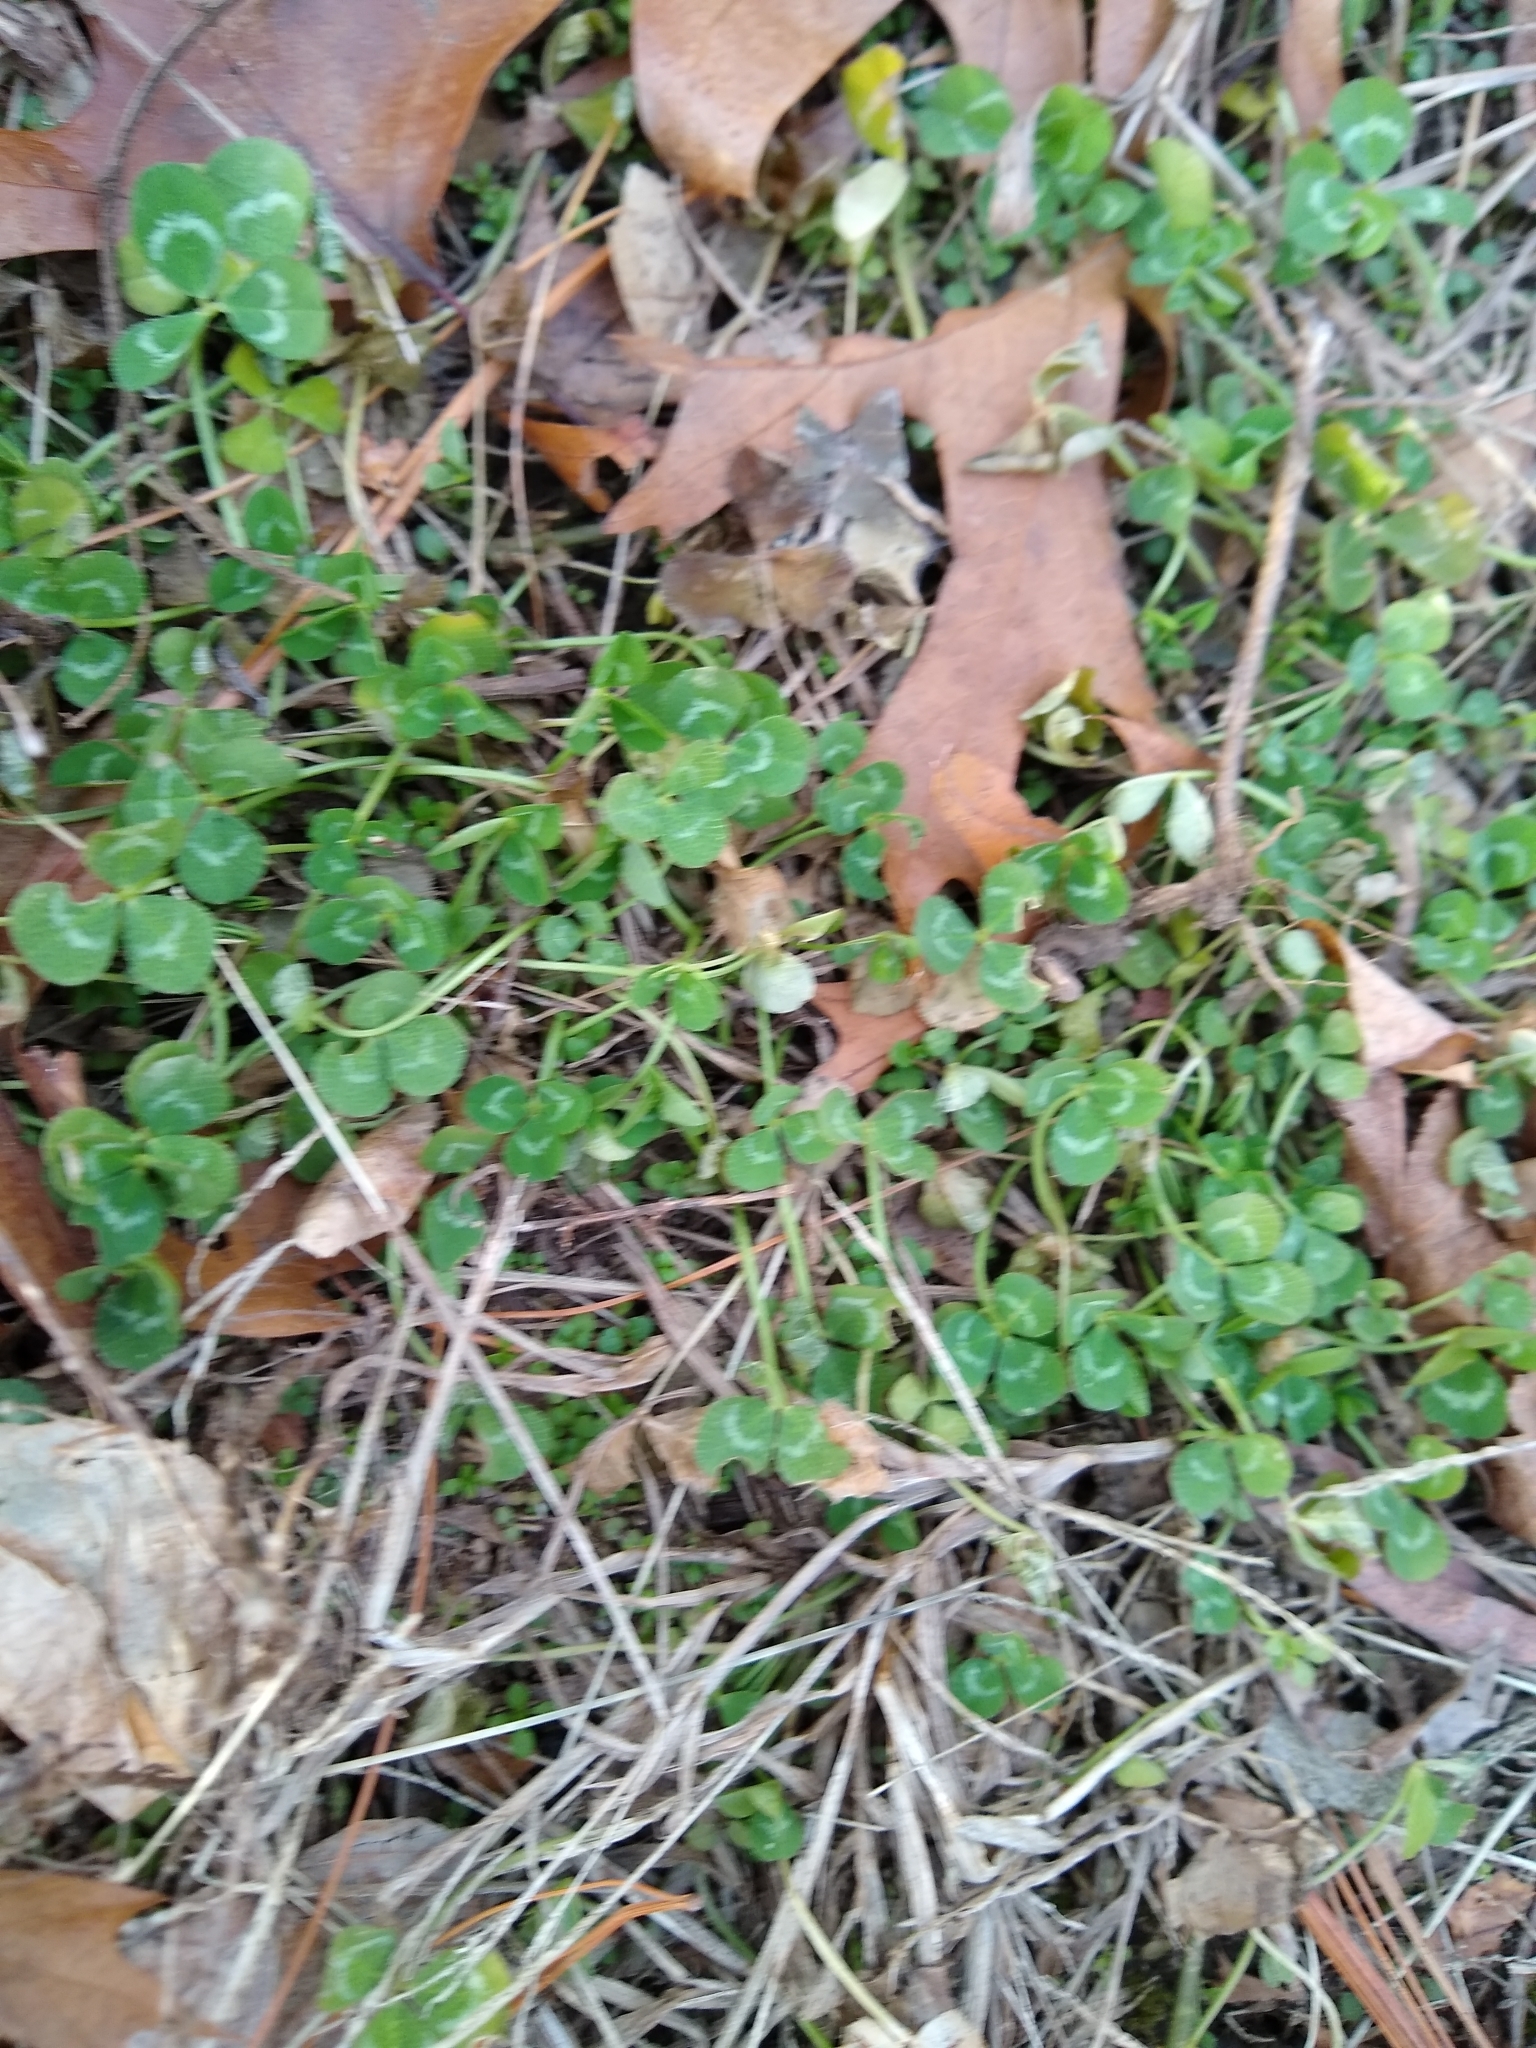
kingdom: Plantae
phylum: Tracheophyta
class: Magnoliopsida
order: Fabales
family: Fabaceae
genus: Trifolium
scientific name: Trifolium repens
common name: White clover
